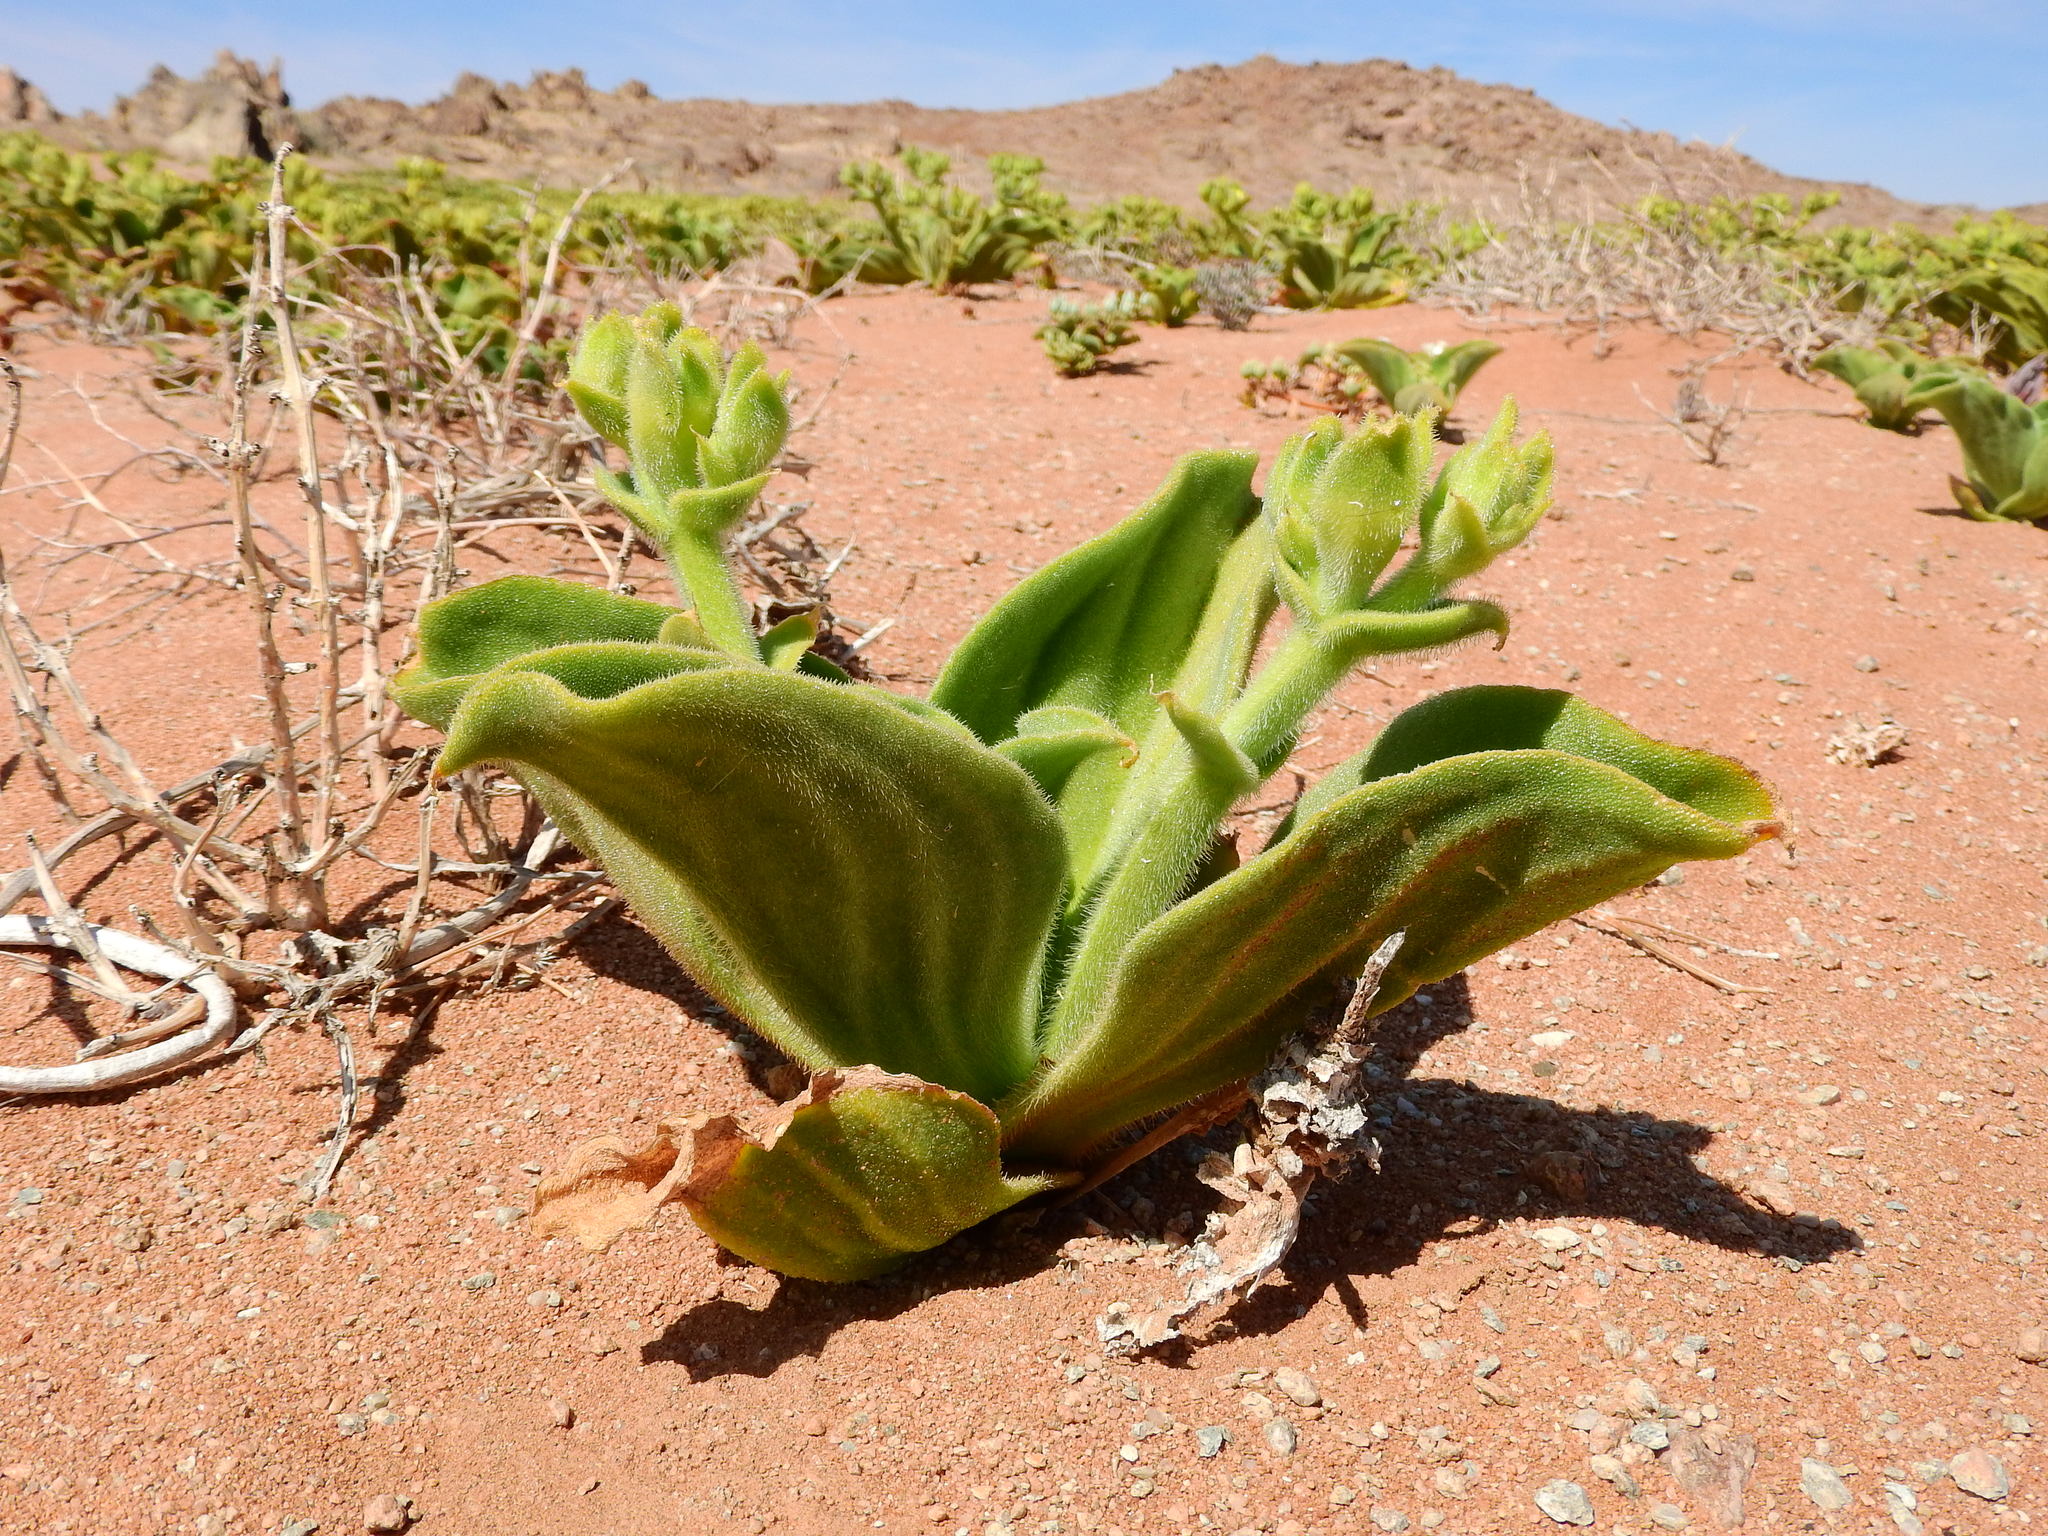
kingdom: Plantae
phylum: Tracheophyta
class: Magnoliopsida
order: Caryophyllales
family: Aizoaceae
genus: Mesembryanthemum
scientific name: Mesembryanthemum pellitum
